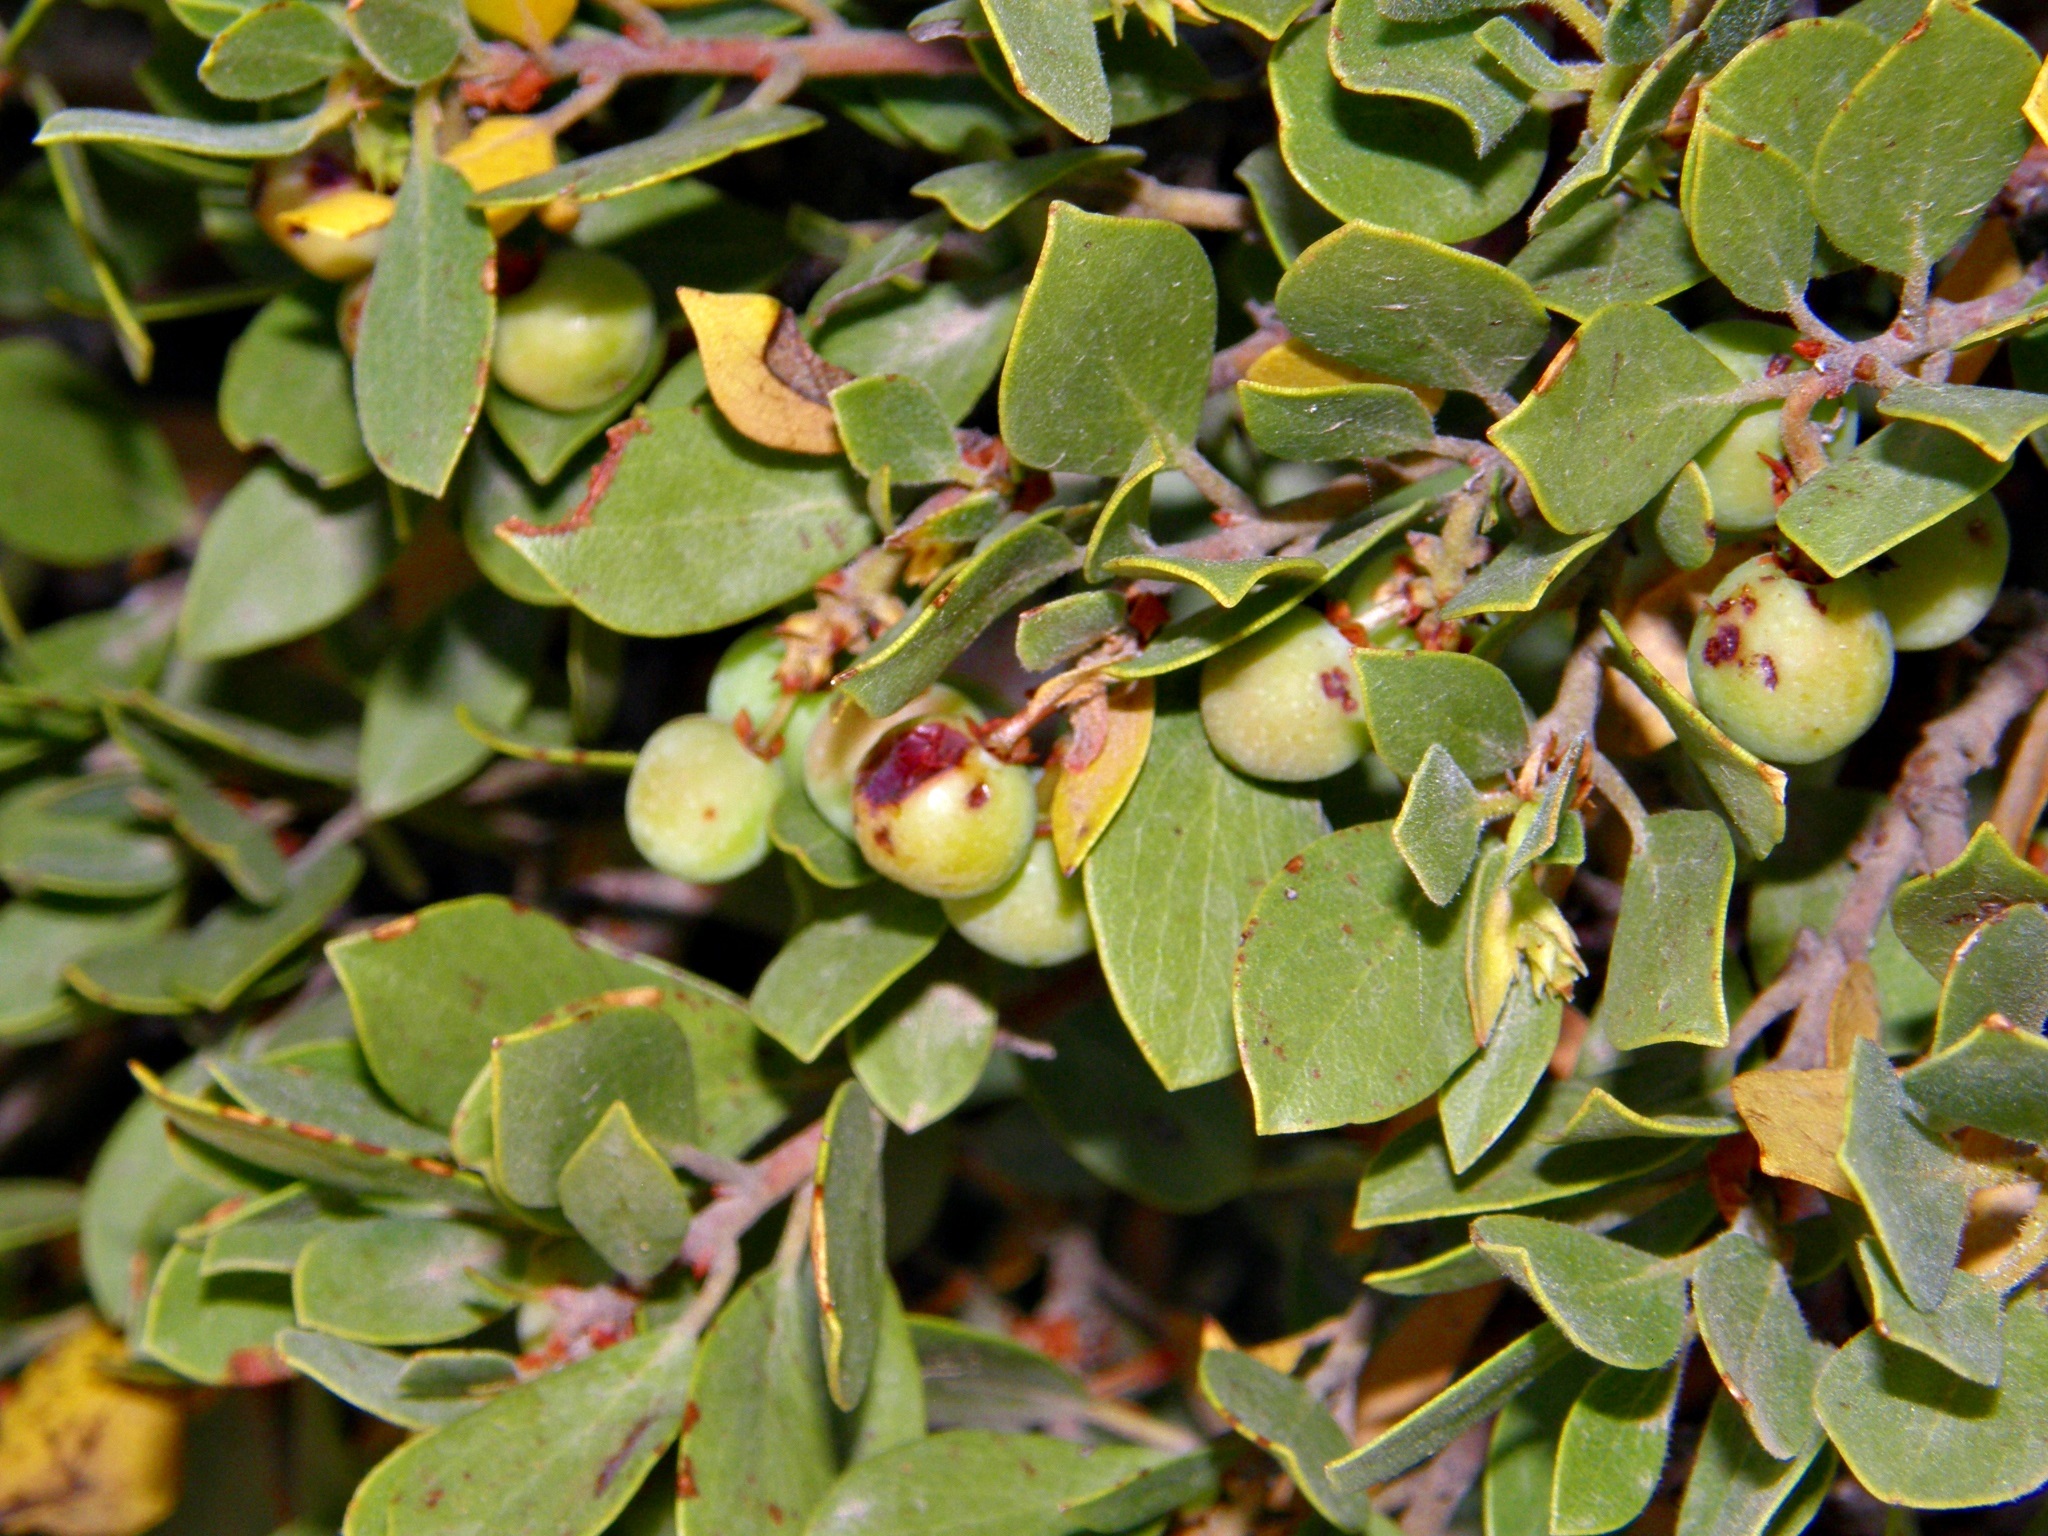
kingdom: Plantae
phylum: Tracheophyta
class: Magnoliopsida
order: Ericales
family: Ericaceae
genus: Arctostaphylos
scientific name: Arctostaphylos nevadensis
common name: Pinemat manzanita
